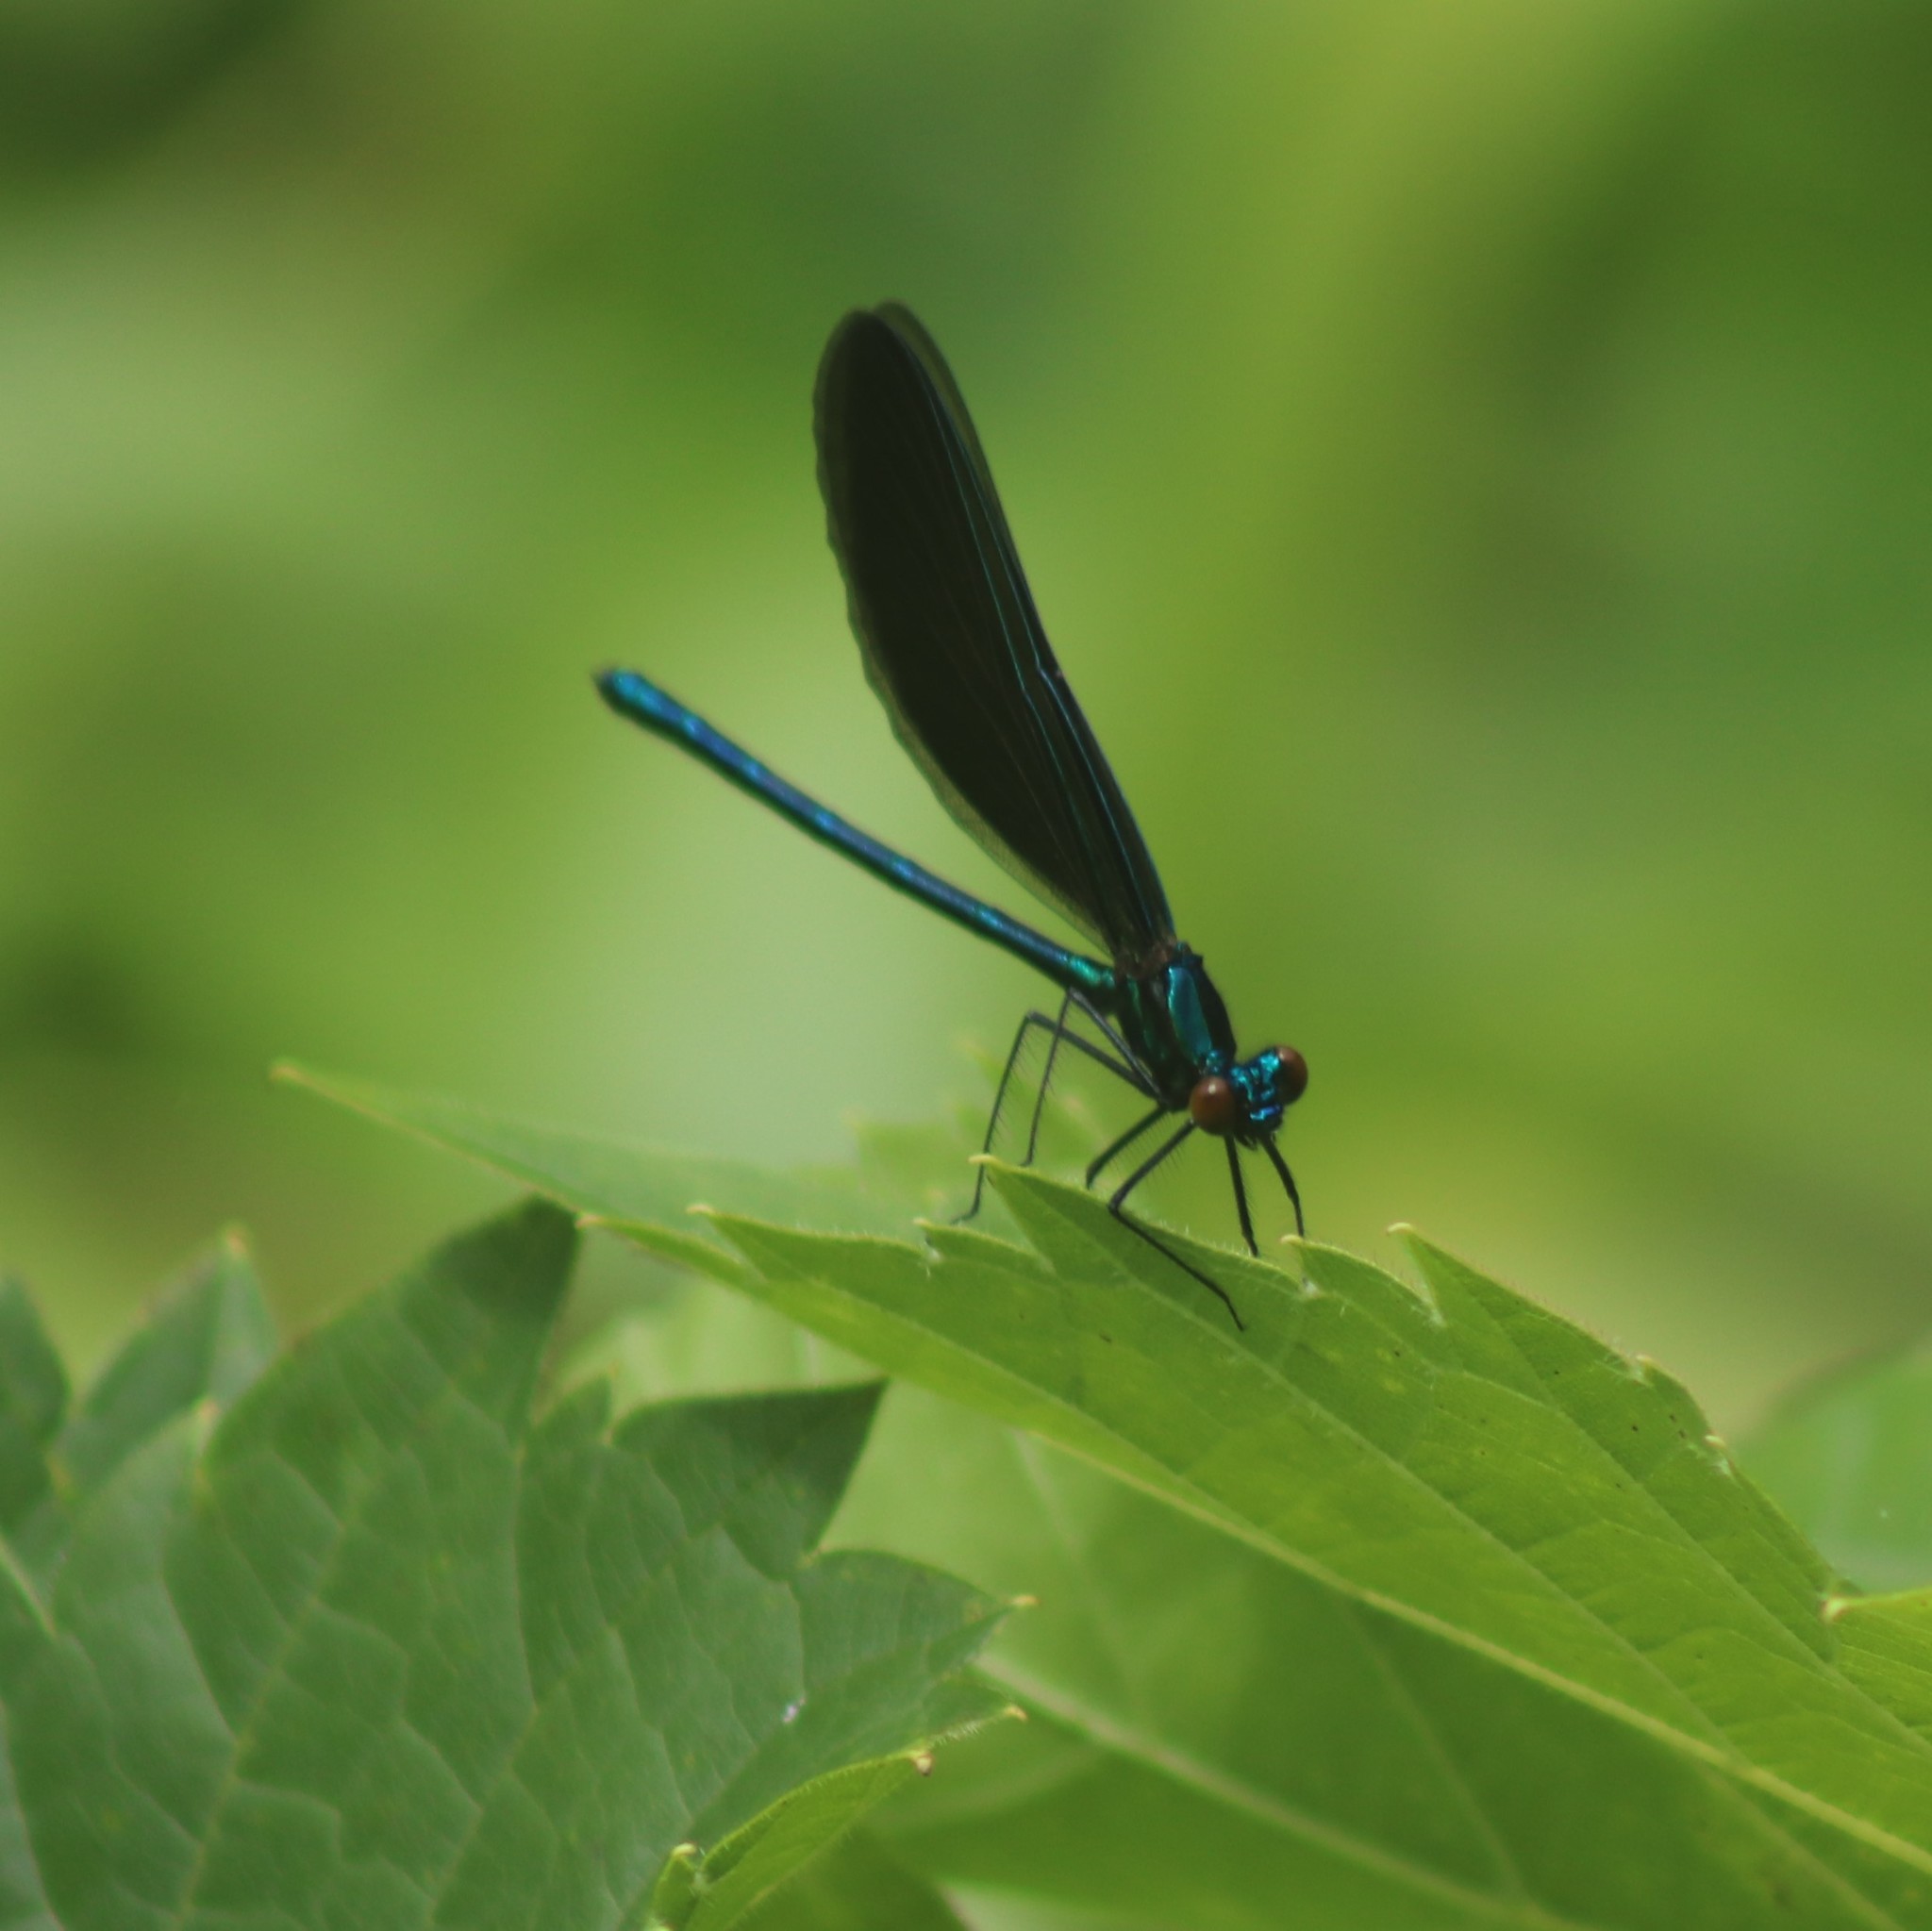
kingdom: Animalia
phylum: Arthropoda
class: Insecta
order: Odonata
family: Calopterygidae
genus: Calopteryx
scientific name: Calopteryx maculata
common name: Ebony jewelwing
